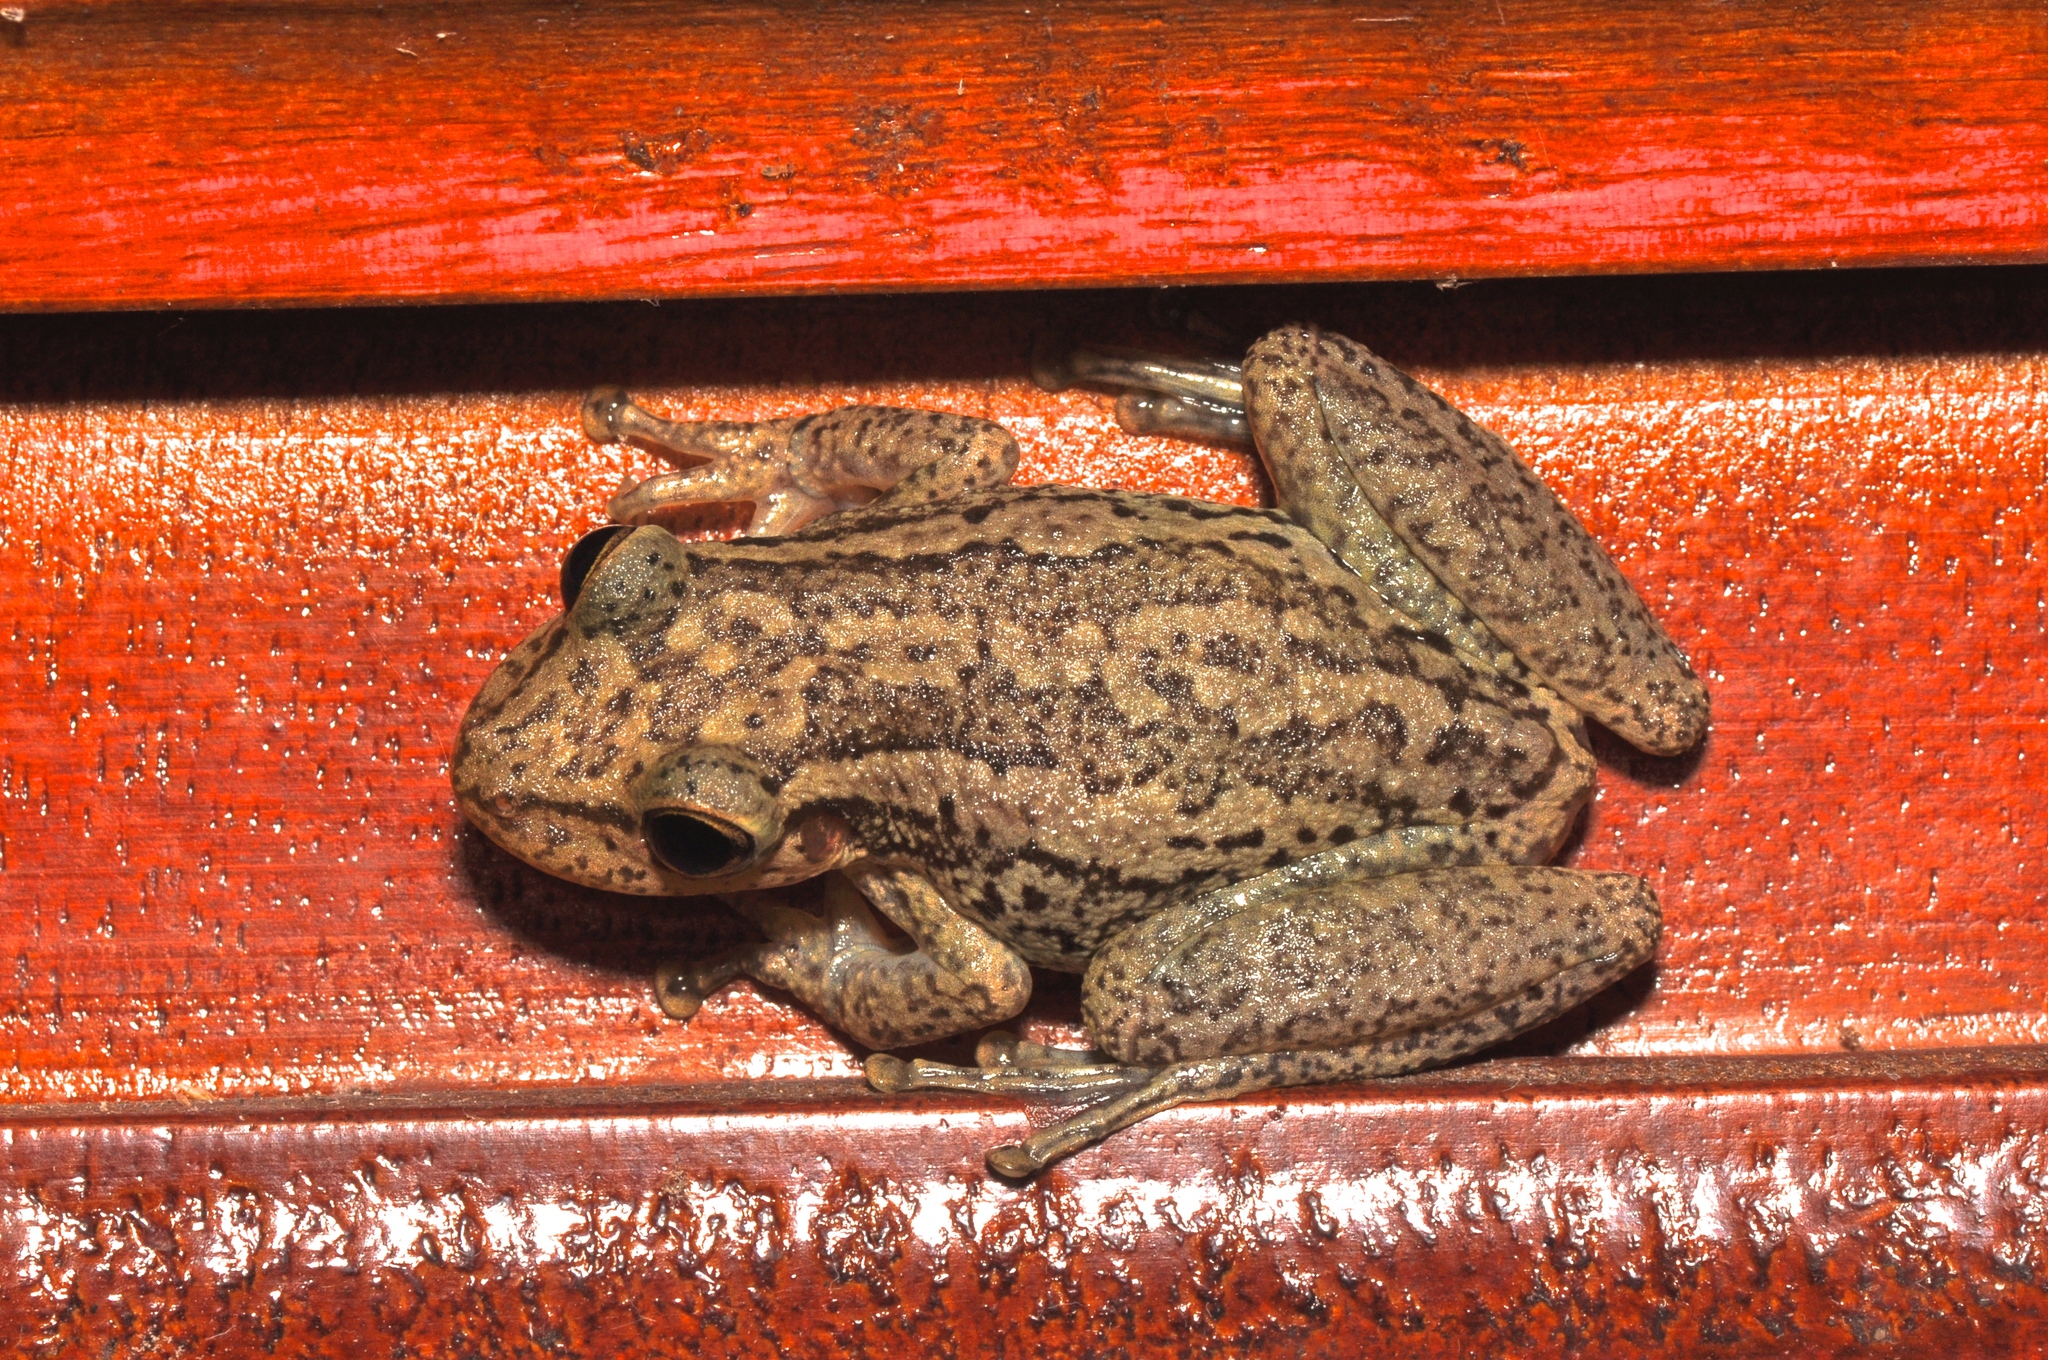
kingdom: Animalia
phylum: Chordata
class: Amphibia
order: Anura
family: Hylidae
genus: Scinax
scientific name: Scinax funereus
